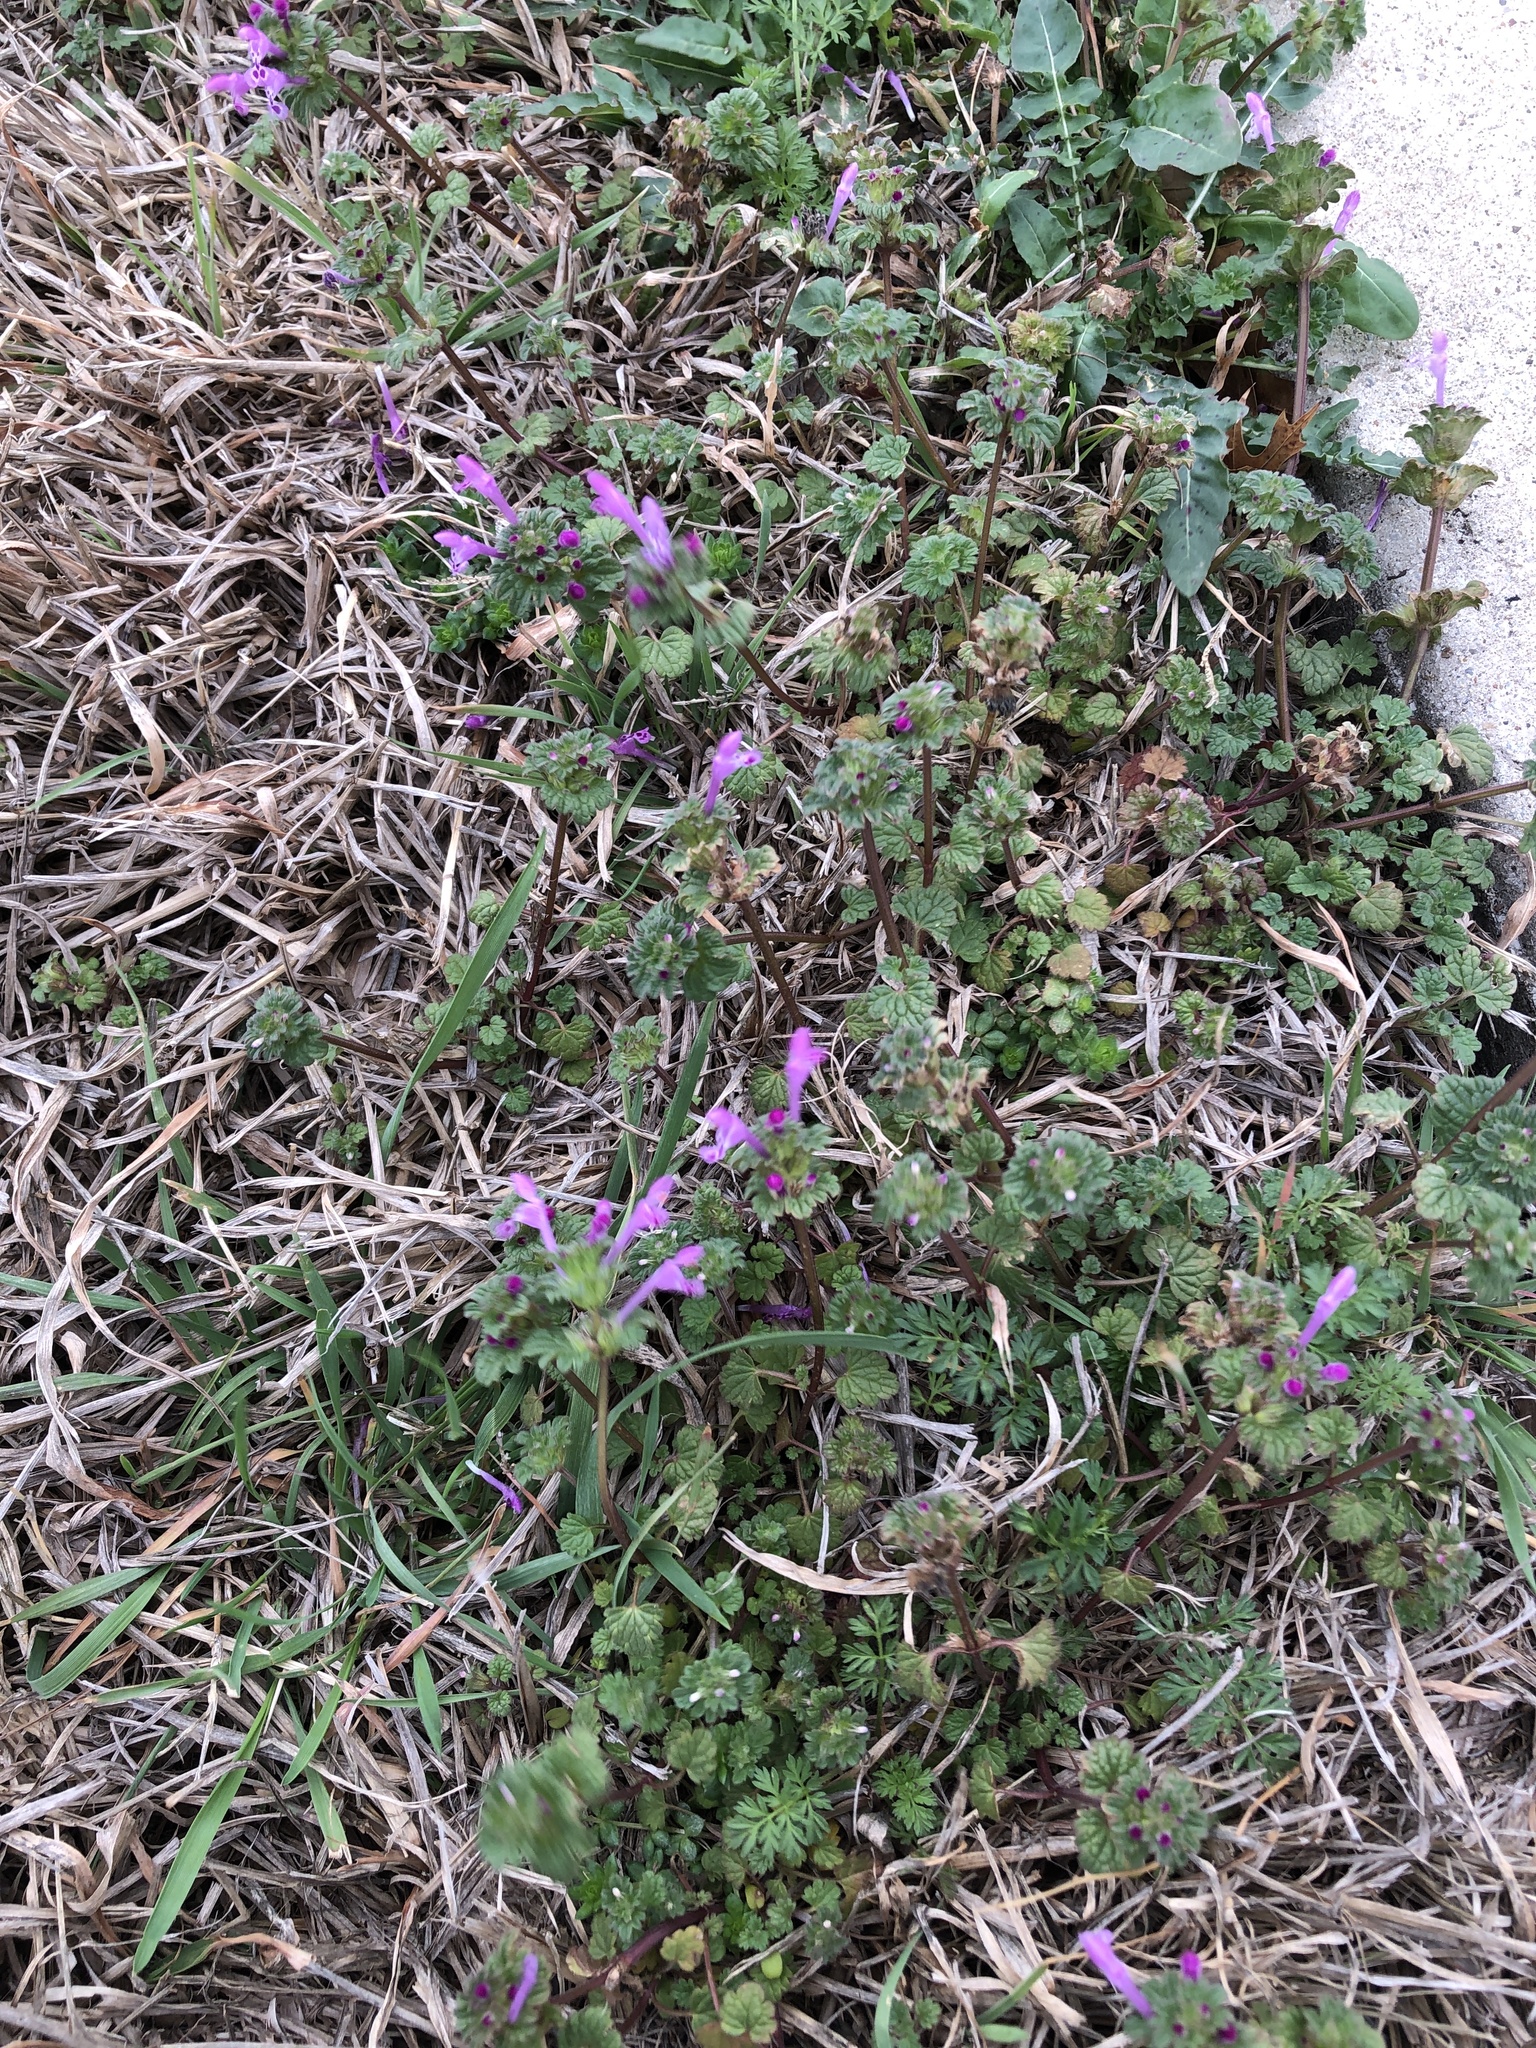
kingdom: Plantae
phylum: Tracheophyta
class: Magnoliopsida
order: Lamiales
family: Lamiaceae
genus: Lamium
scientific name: Lamium amplexicaule
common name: Henbit dead-nettle
